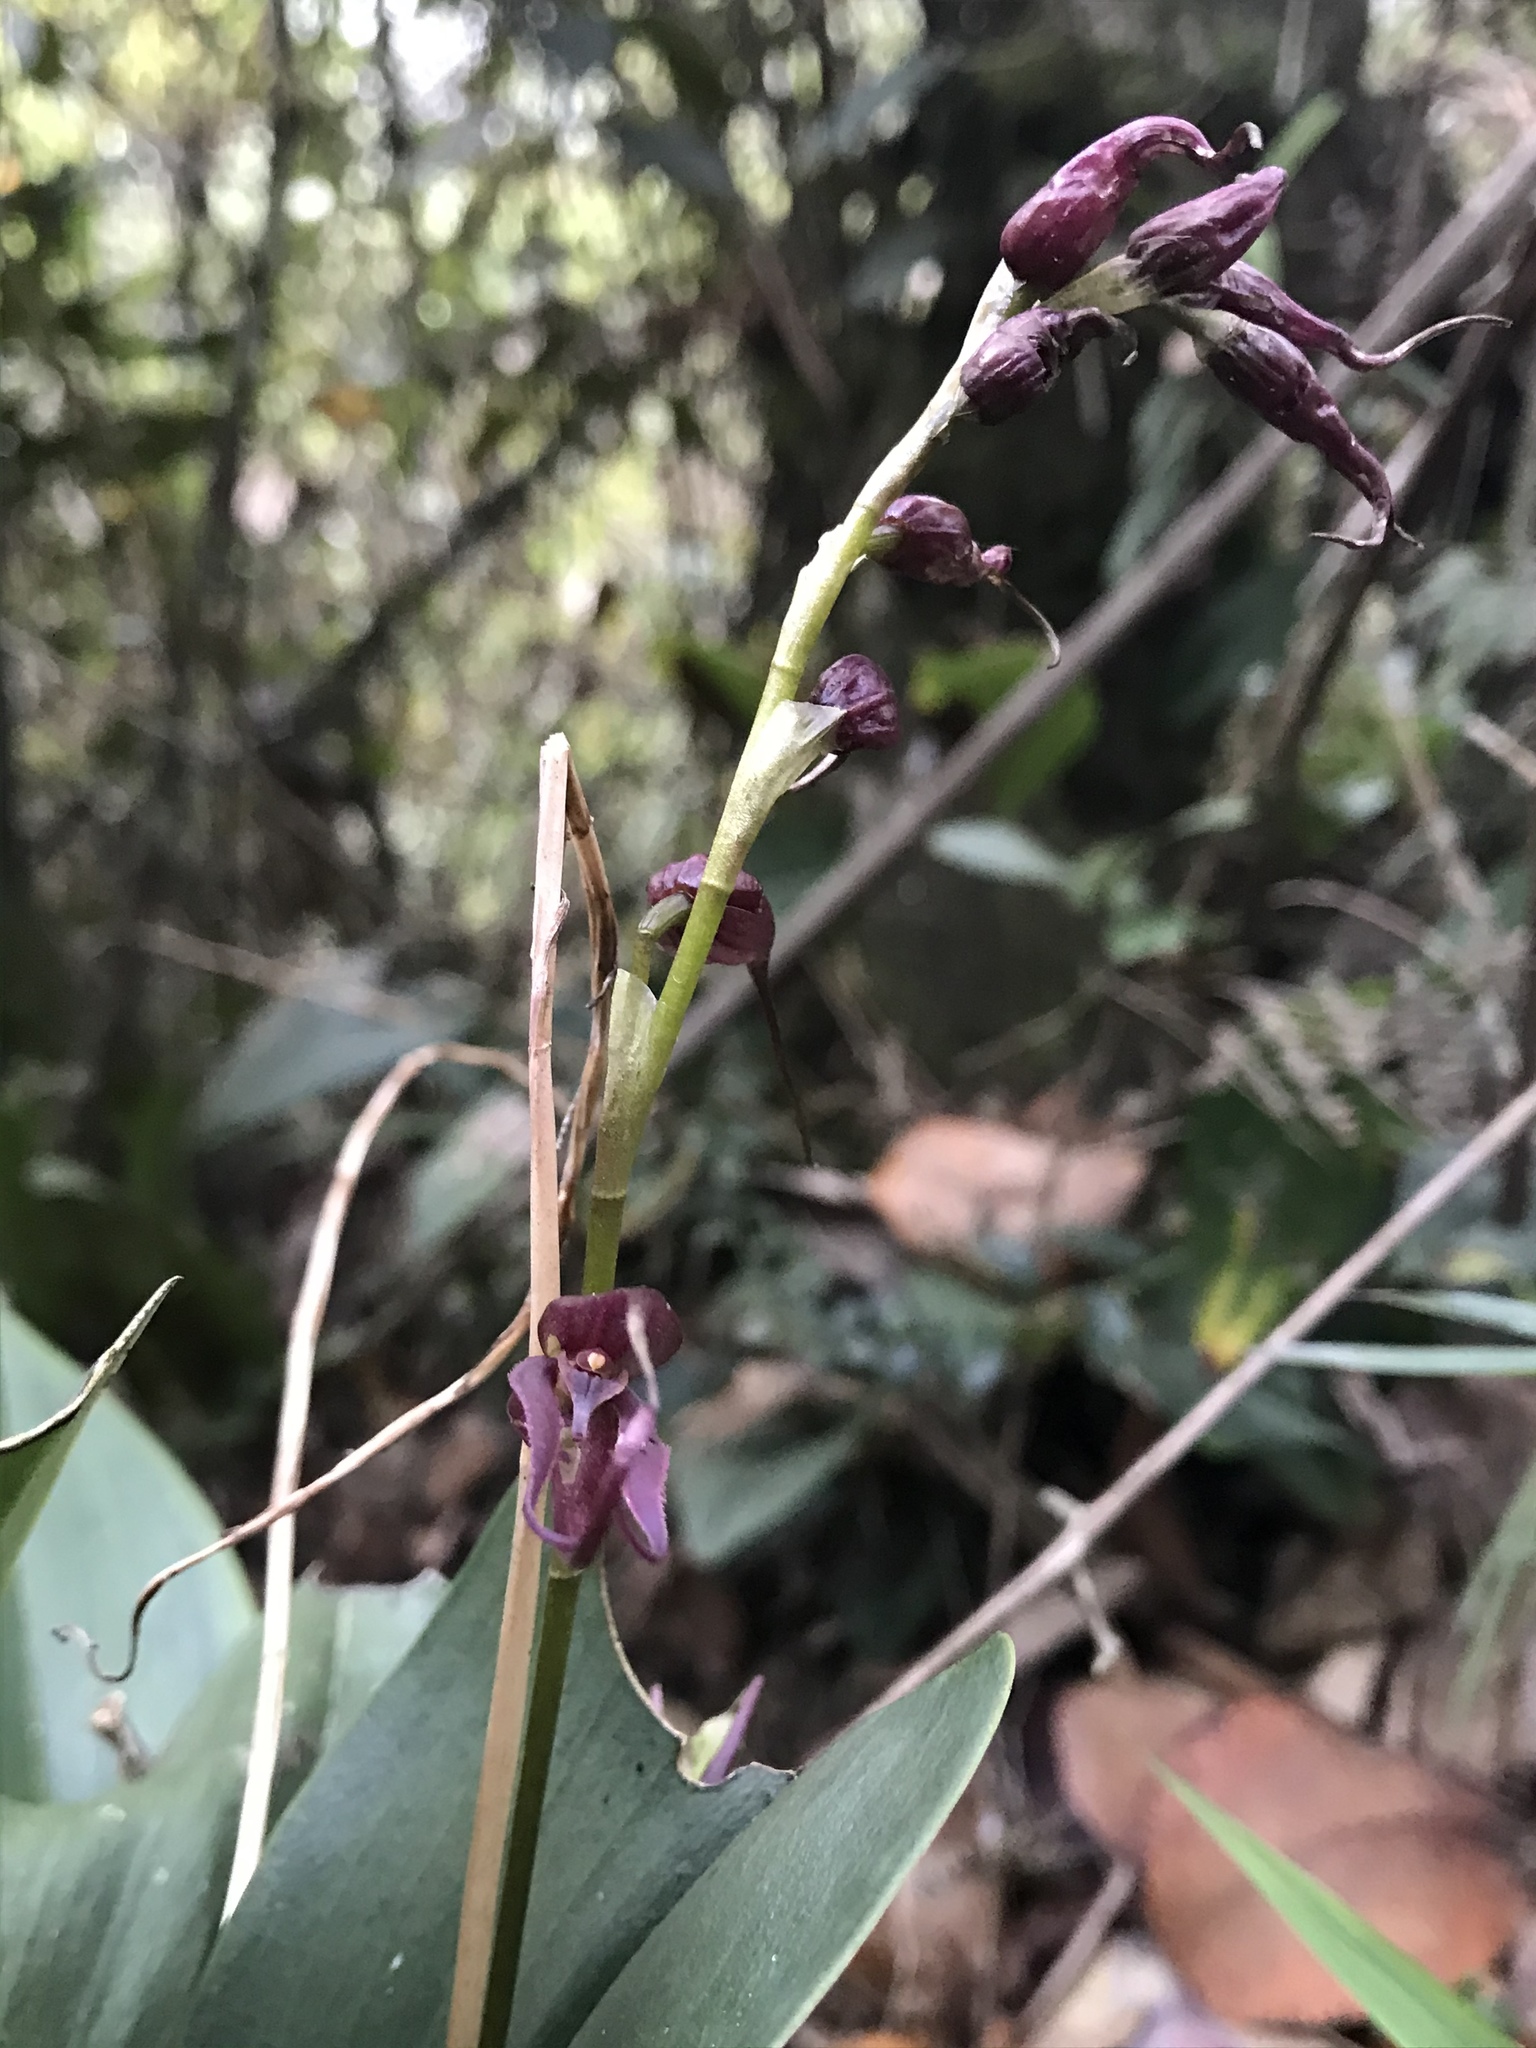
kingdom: Plantae
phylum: Tracheophyta
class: Liliopsida
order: Asparagales
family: Orchidaceae
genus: Pleurothallis
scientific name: Pleurothallis phalangifera
